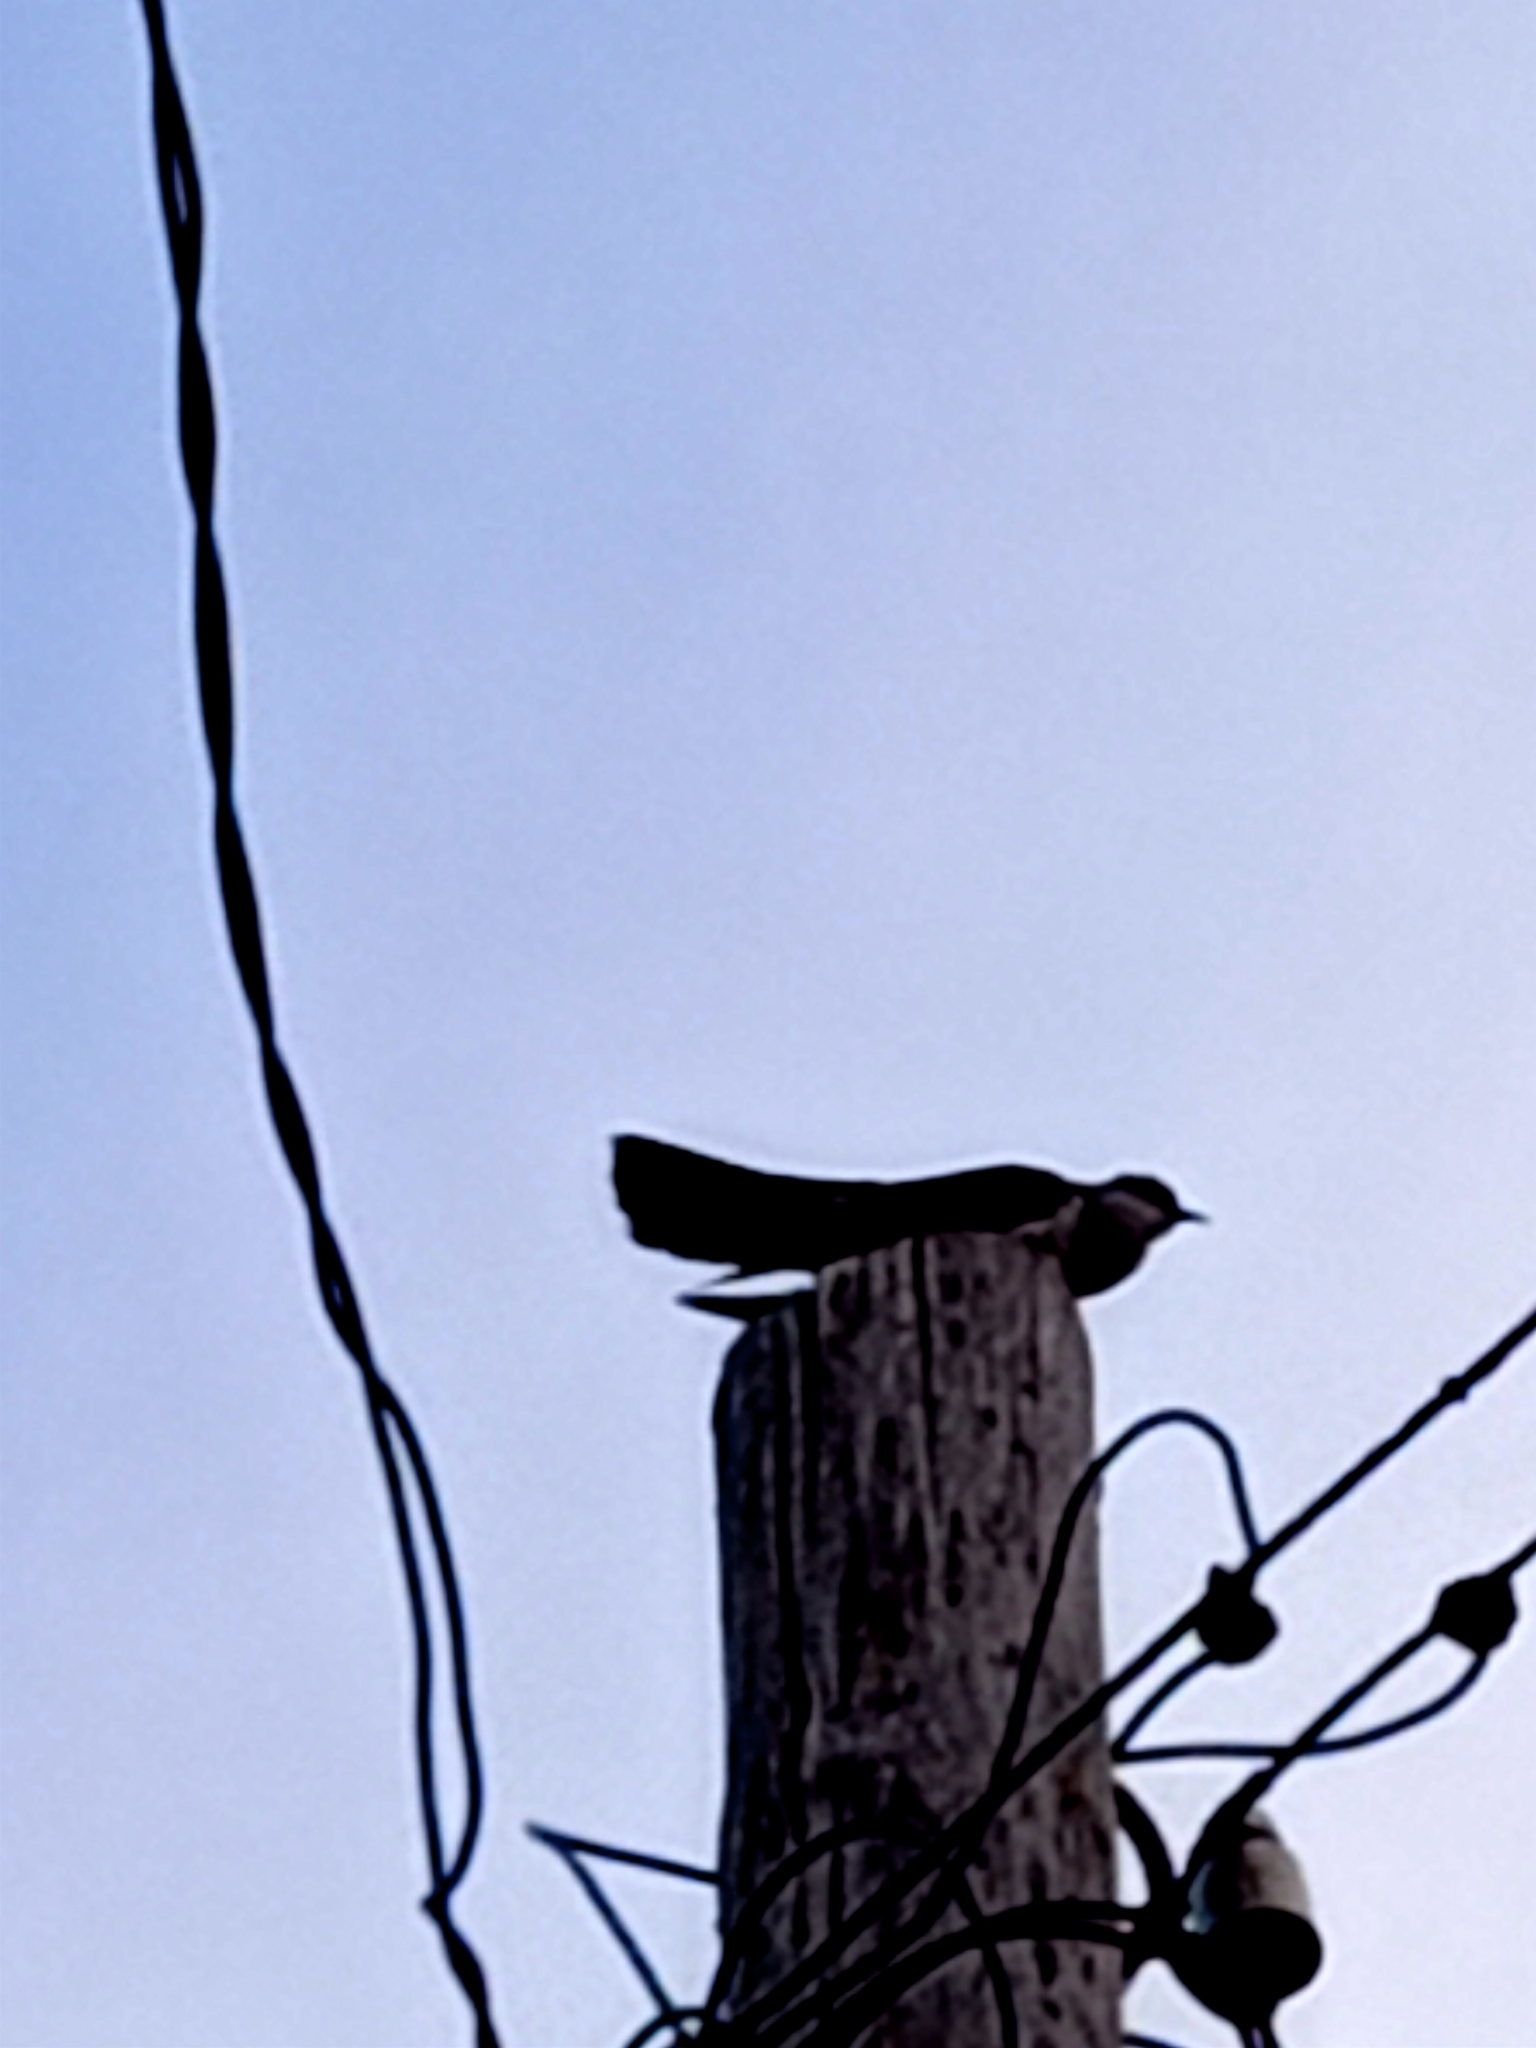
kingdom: Animalia
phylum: Chordata
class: Aves
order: Cuculiformes
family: Cuculidae
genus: Cuculus
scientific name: Cuculus canorus
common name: Common cuckoo
